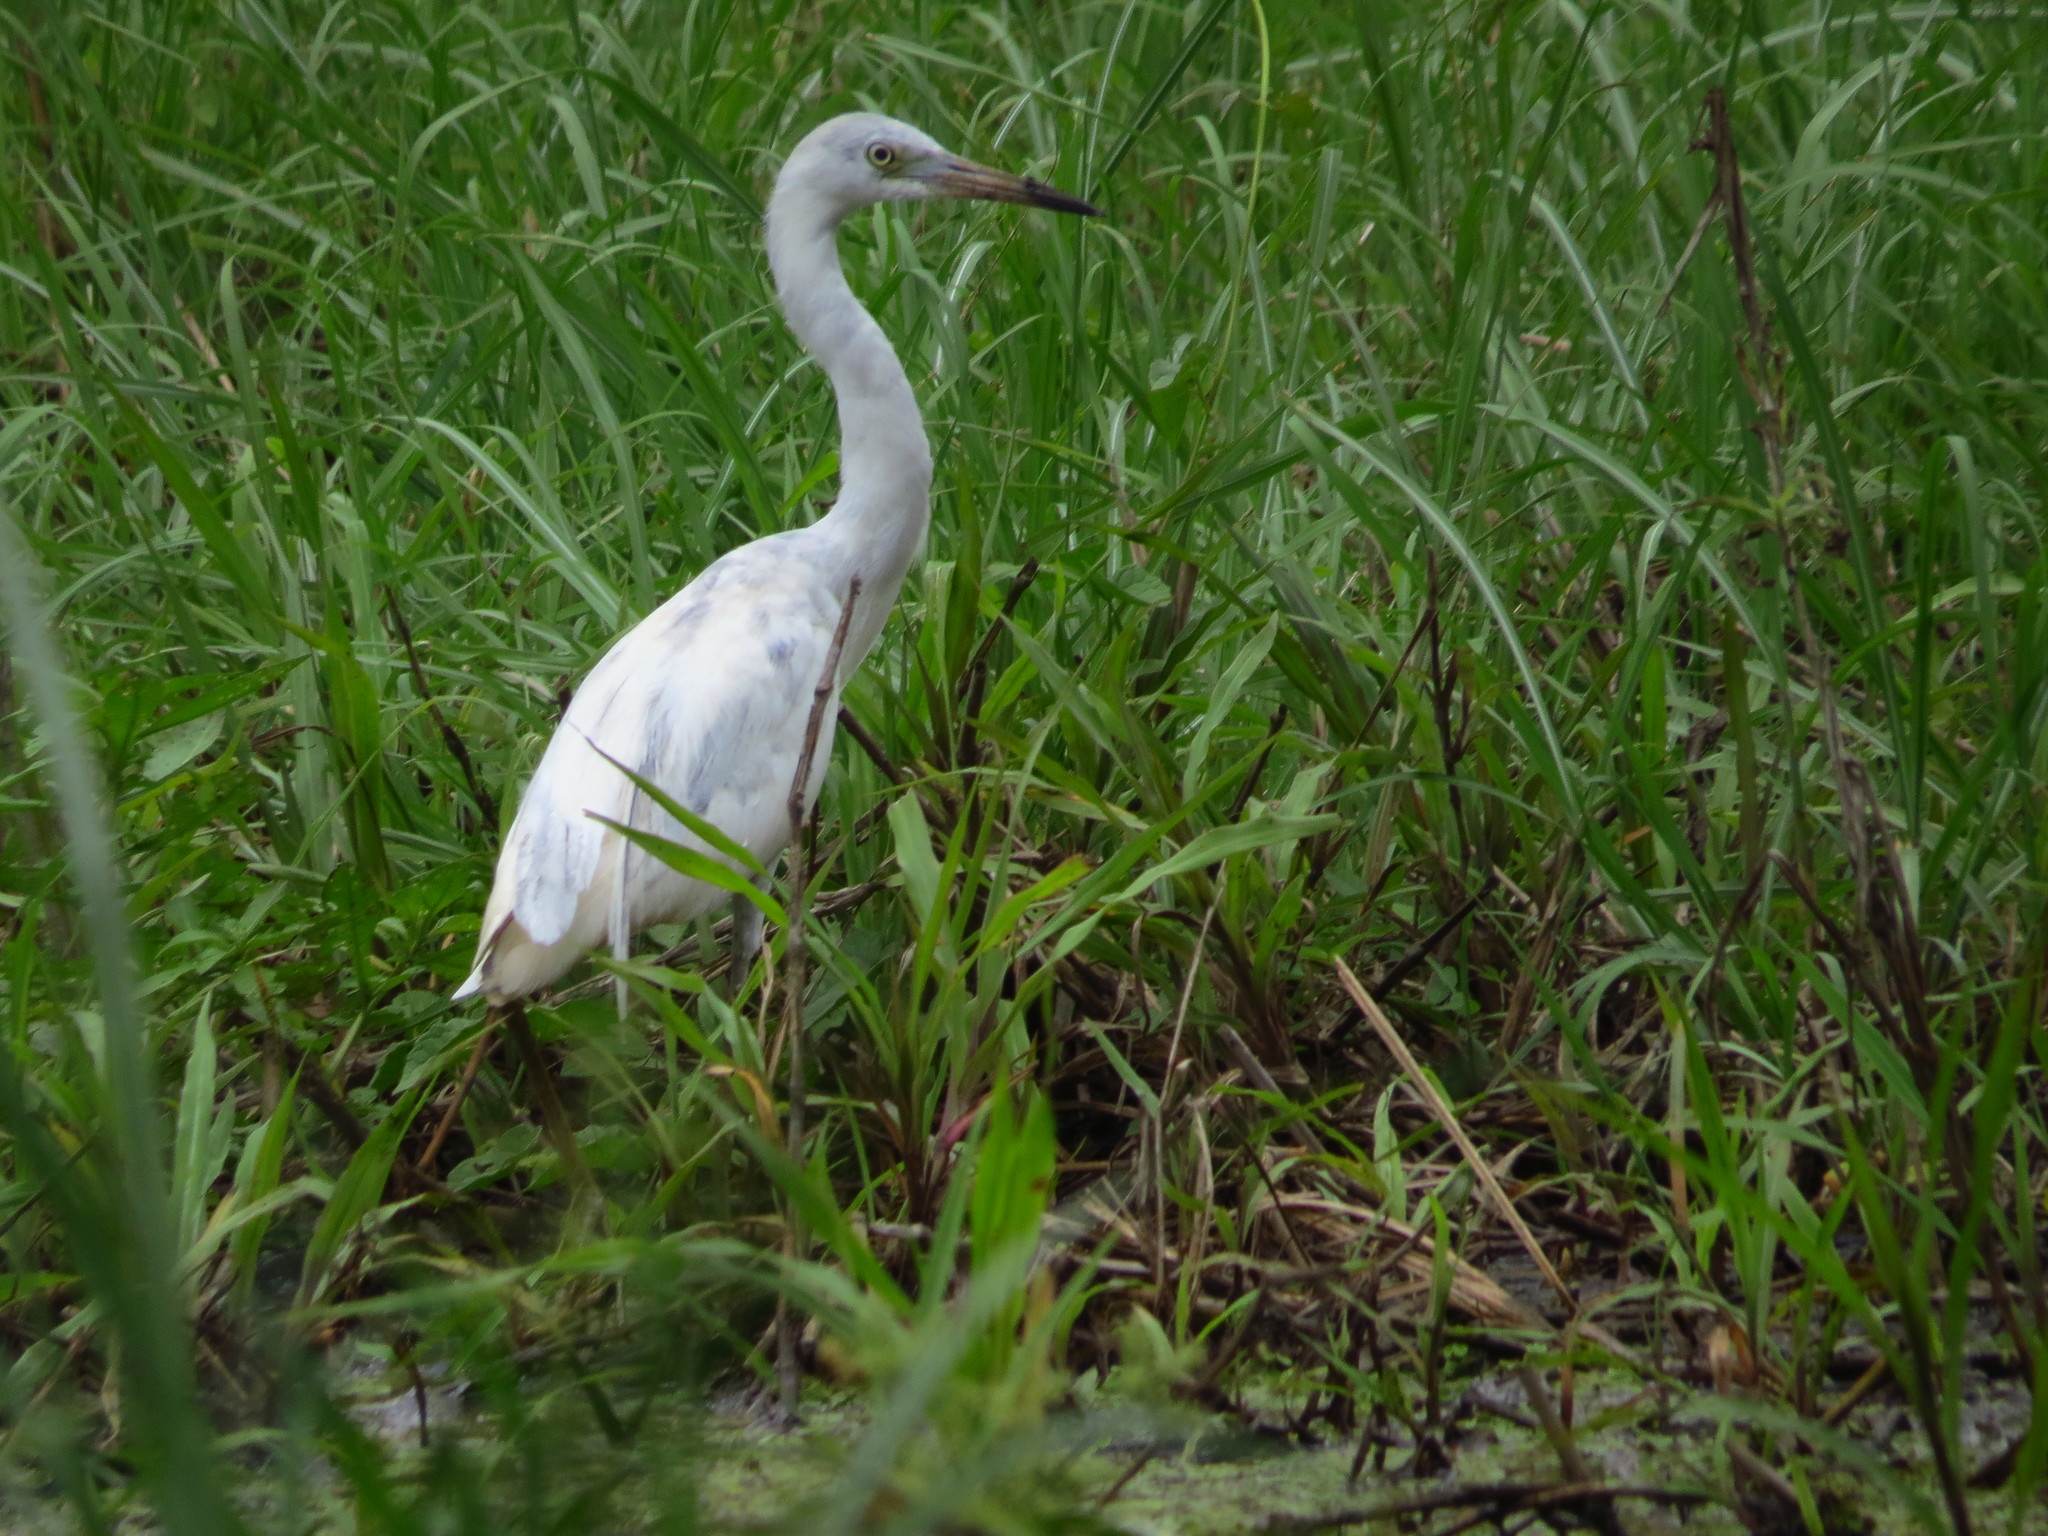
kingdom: Animalia
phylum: Chordata
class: Aves
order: Pelecaniformes
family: Ardeidae
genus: Egretta
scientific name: Egretta caerulea
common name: Little blue heron
